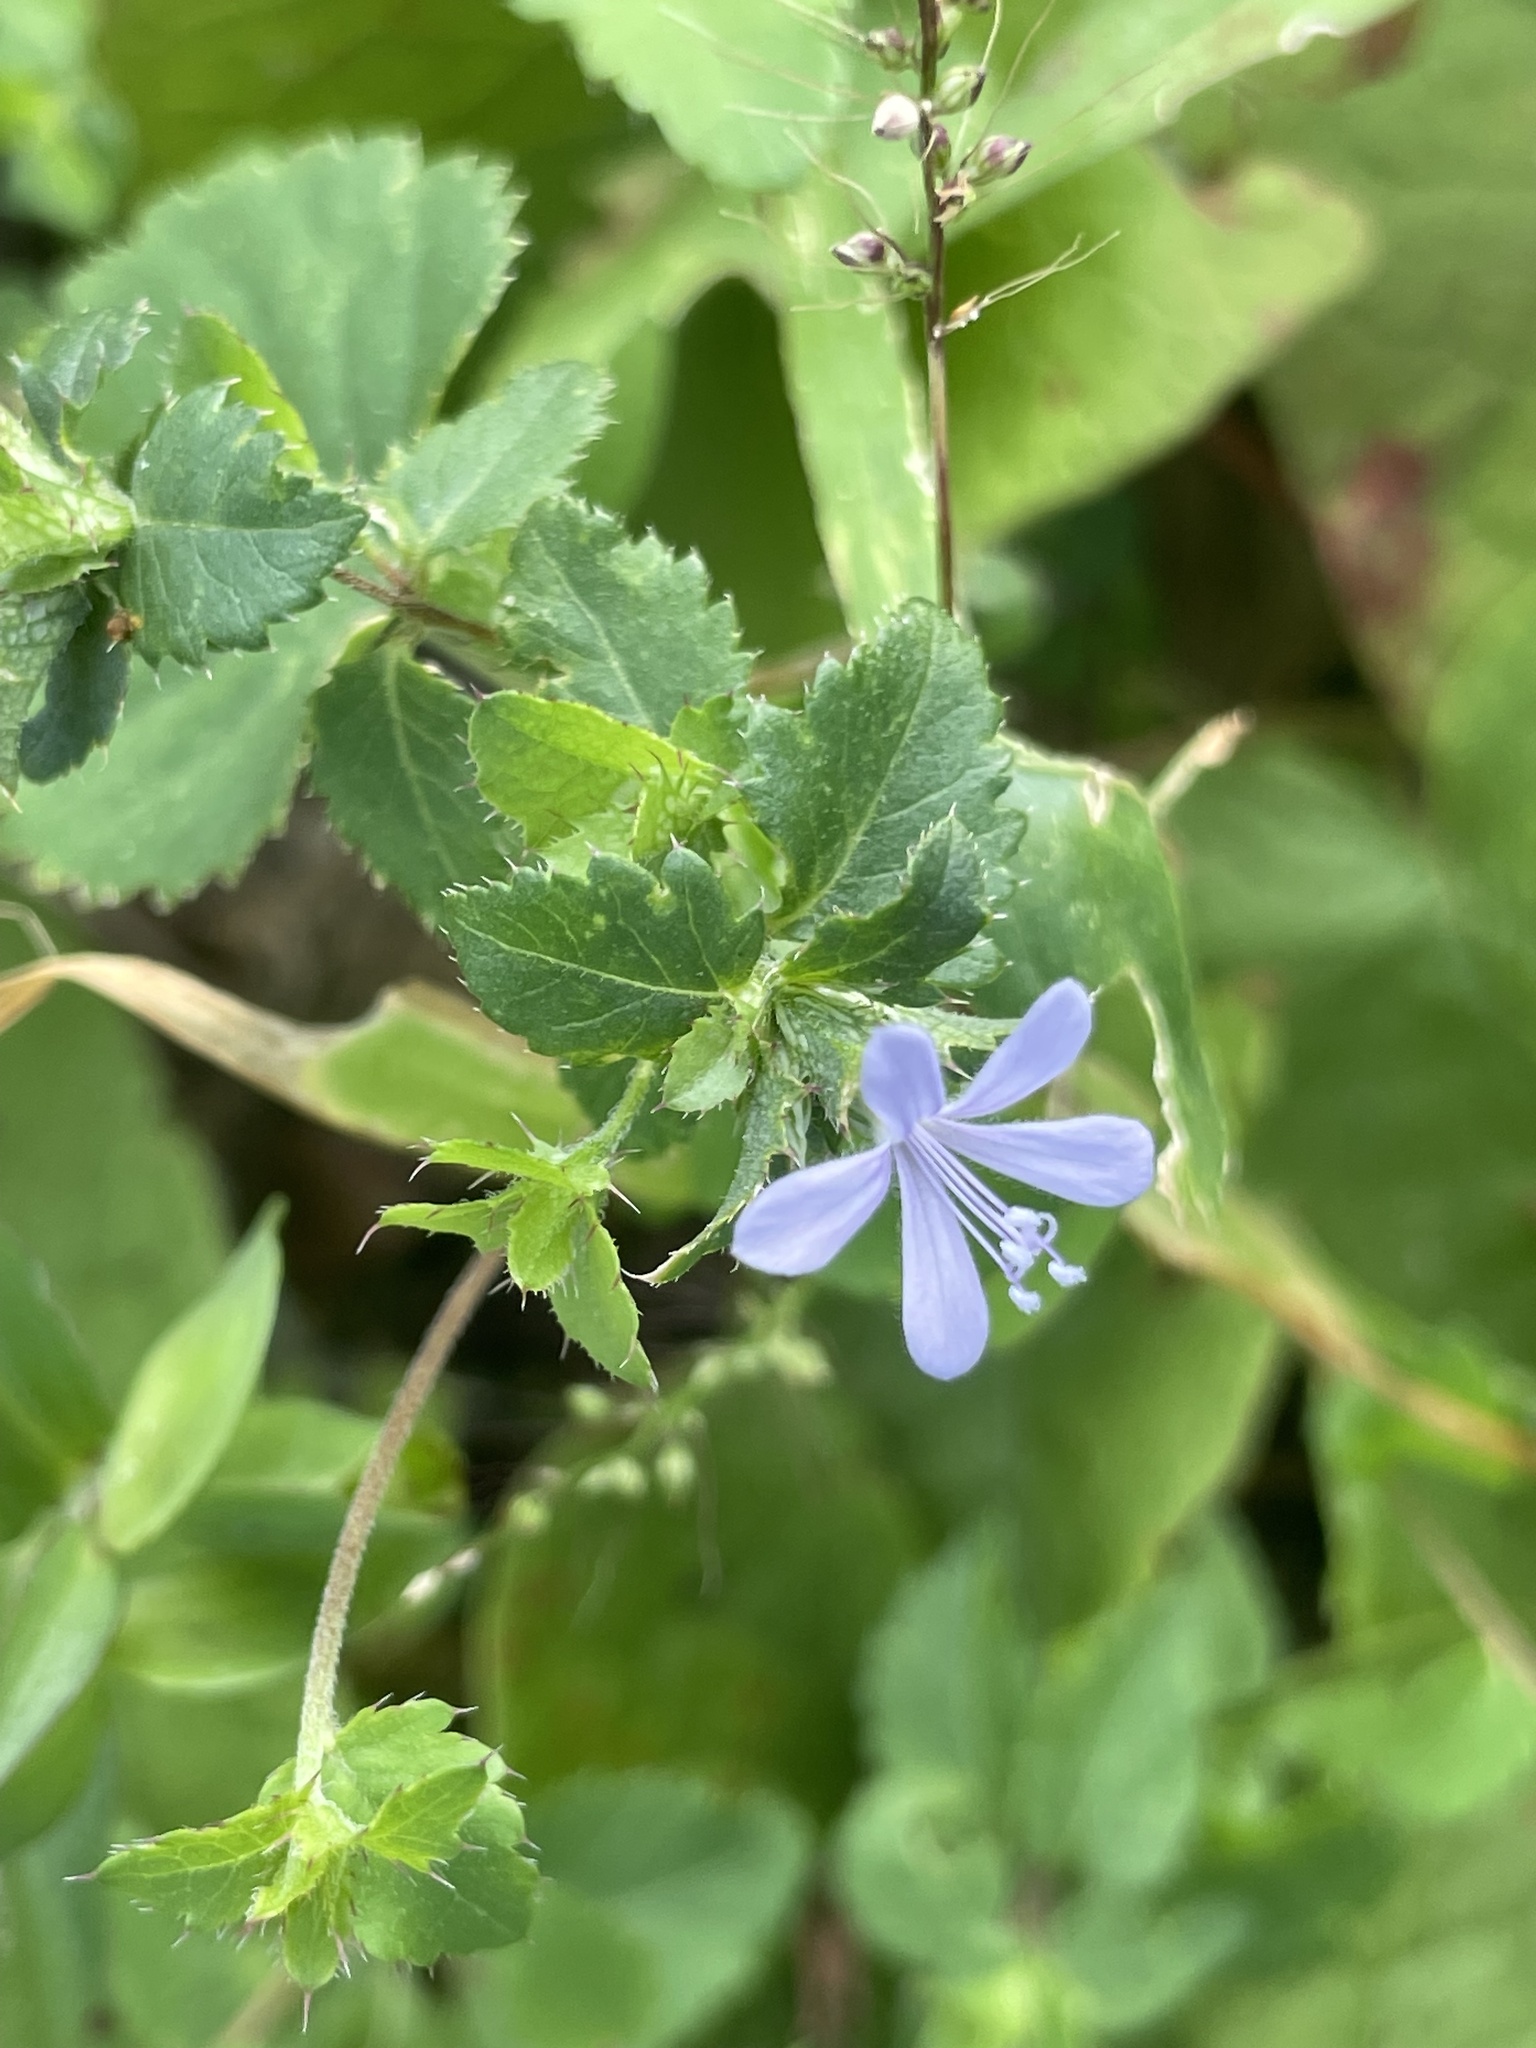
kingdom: Plantae
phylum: Tracheophyta
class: Magnoliopsida
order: Ericales
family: Polemoniaceae
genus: Loeselia
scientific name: Loeselia ciliata
